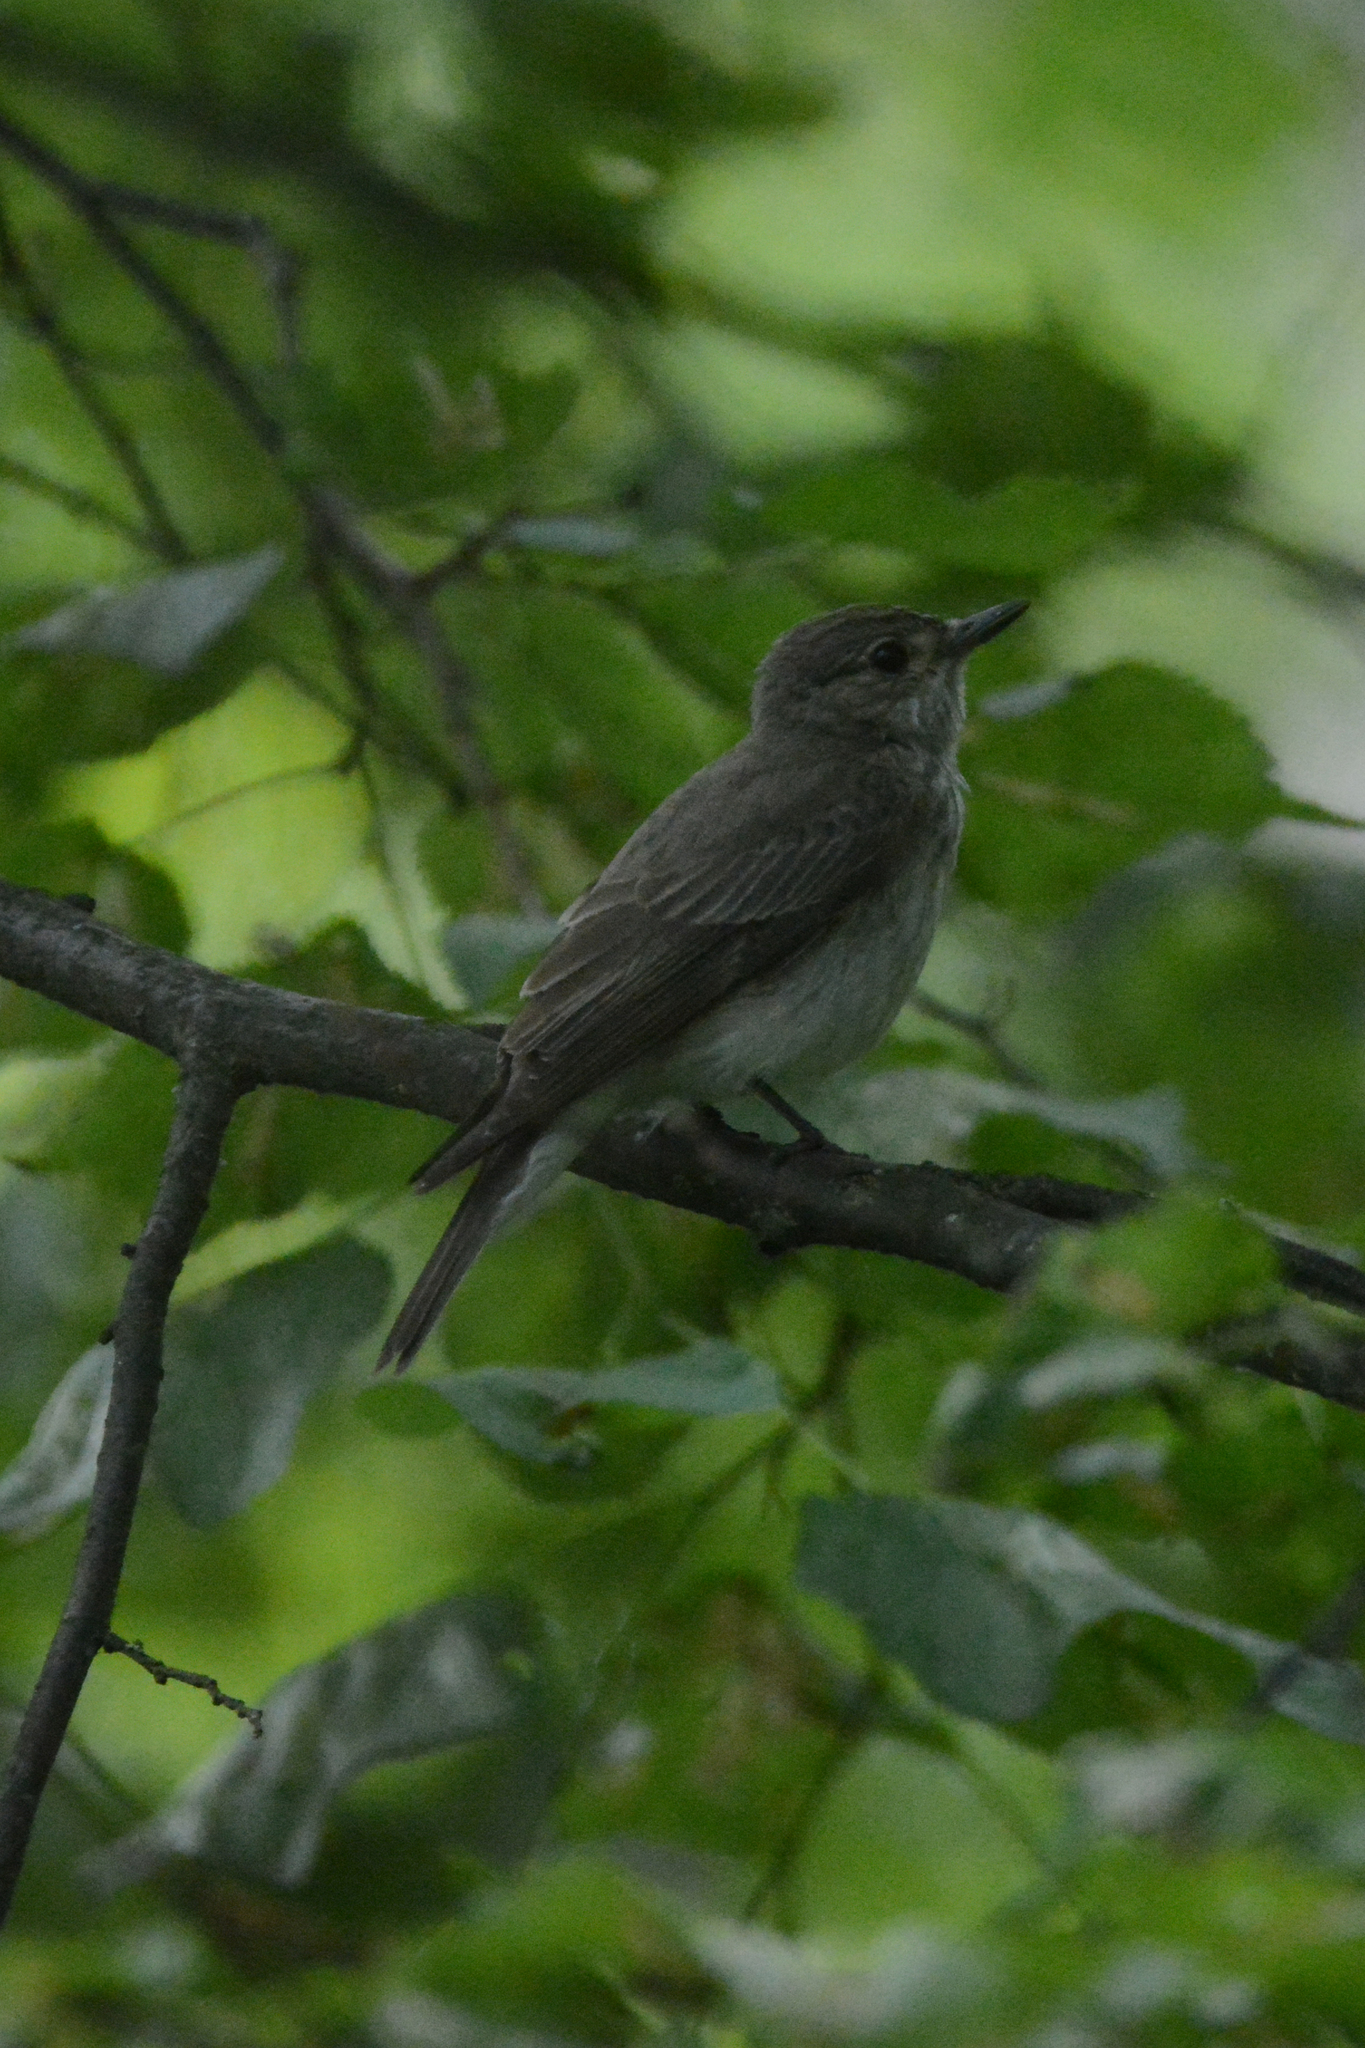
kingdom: Animalia
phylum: Chordata
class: Aves
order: Passeriformes
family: Muscicapidae
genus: Muscicapa
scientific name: Muscicapa striata
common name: Spotted flycatcher
